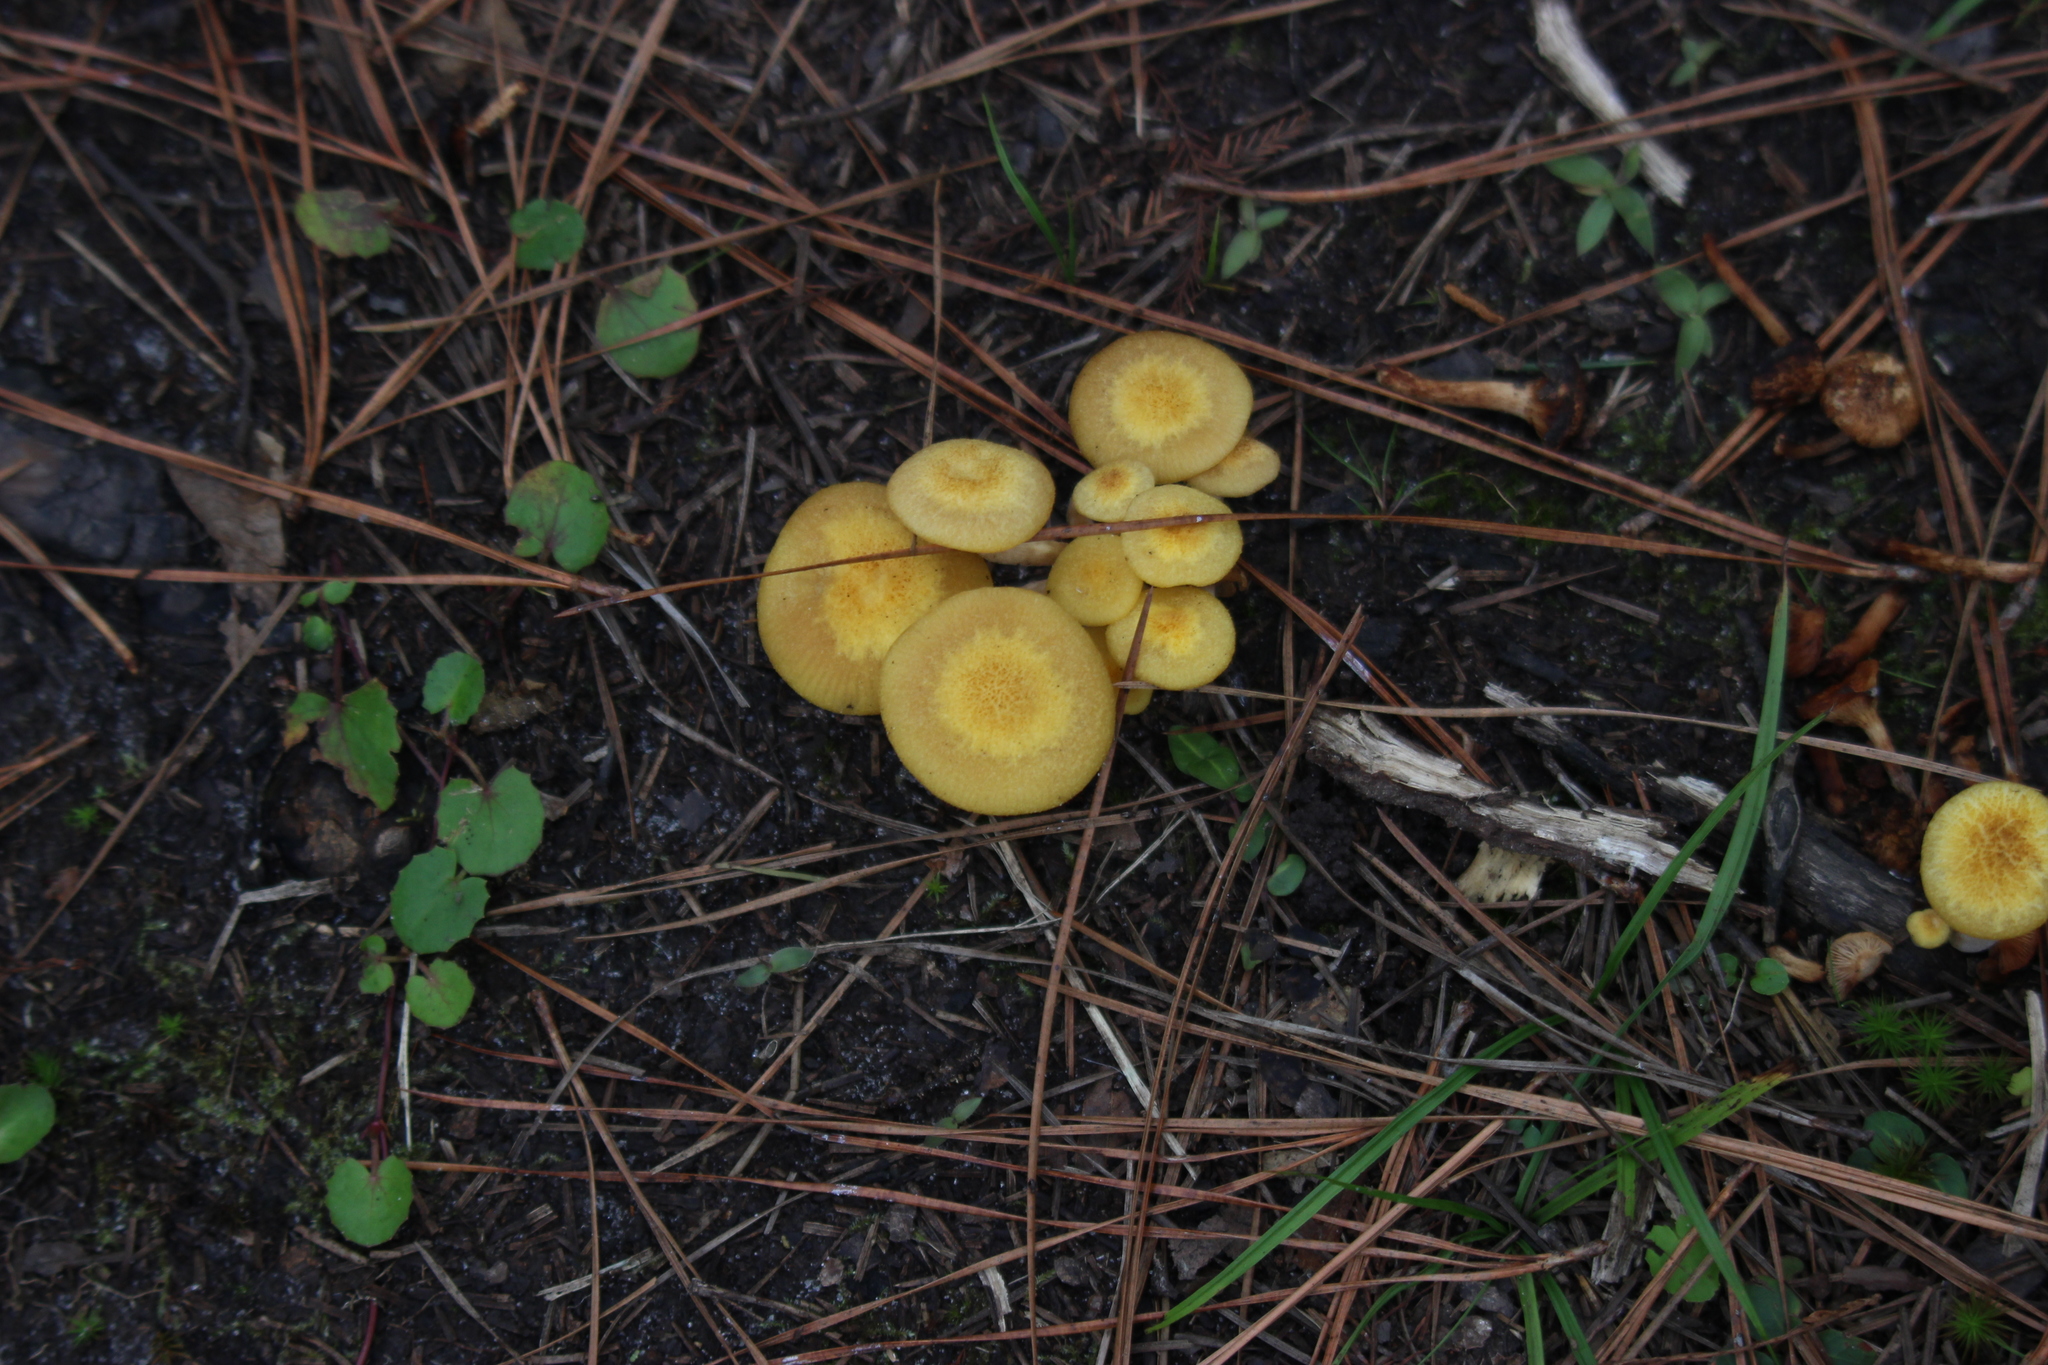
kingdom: Fungi
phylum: Basidiomycota
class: Agaricomycetes
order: Agaricales
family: Physalacriaceae
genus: Desarmillaria
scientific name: Desarmillaria caespitosa
